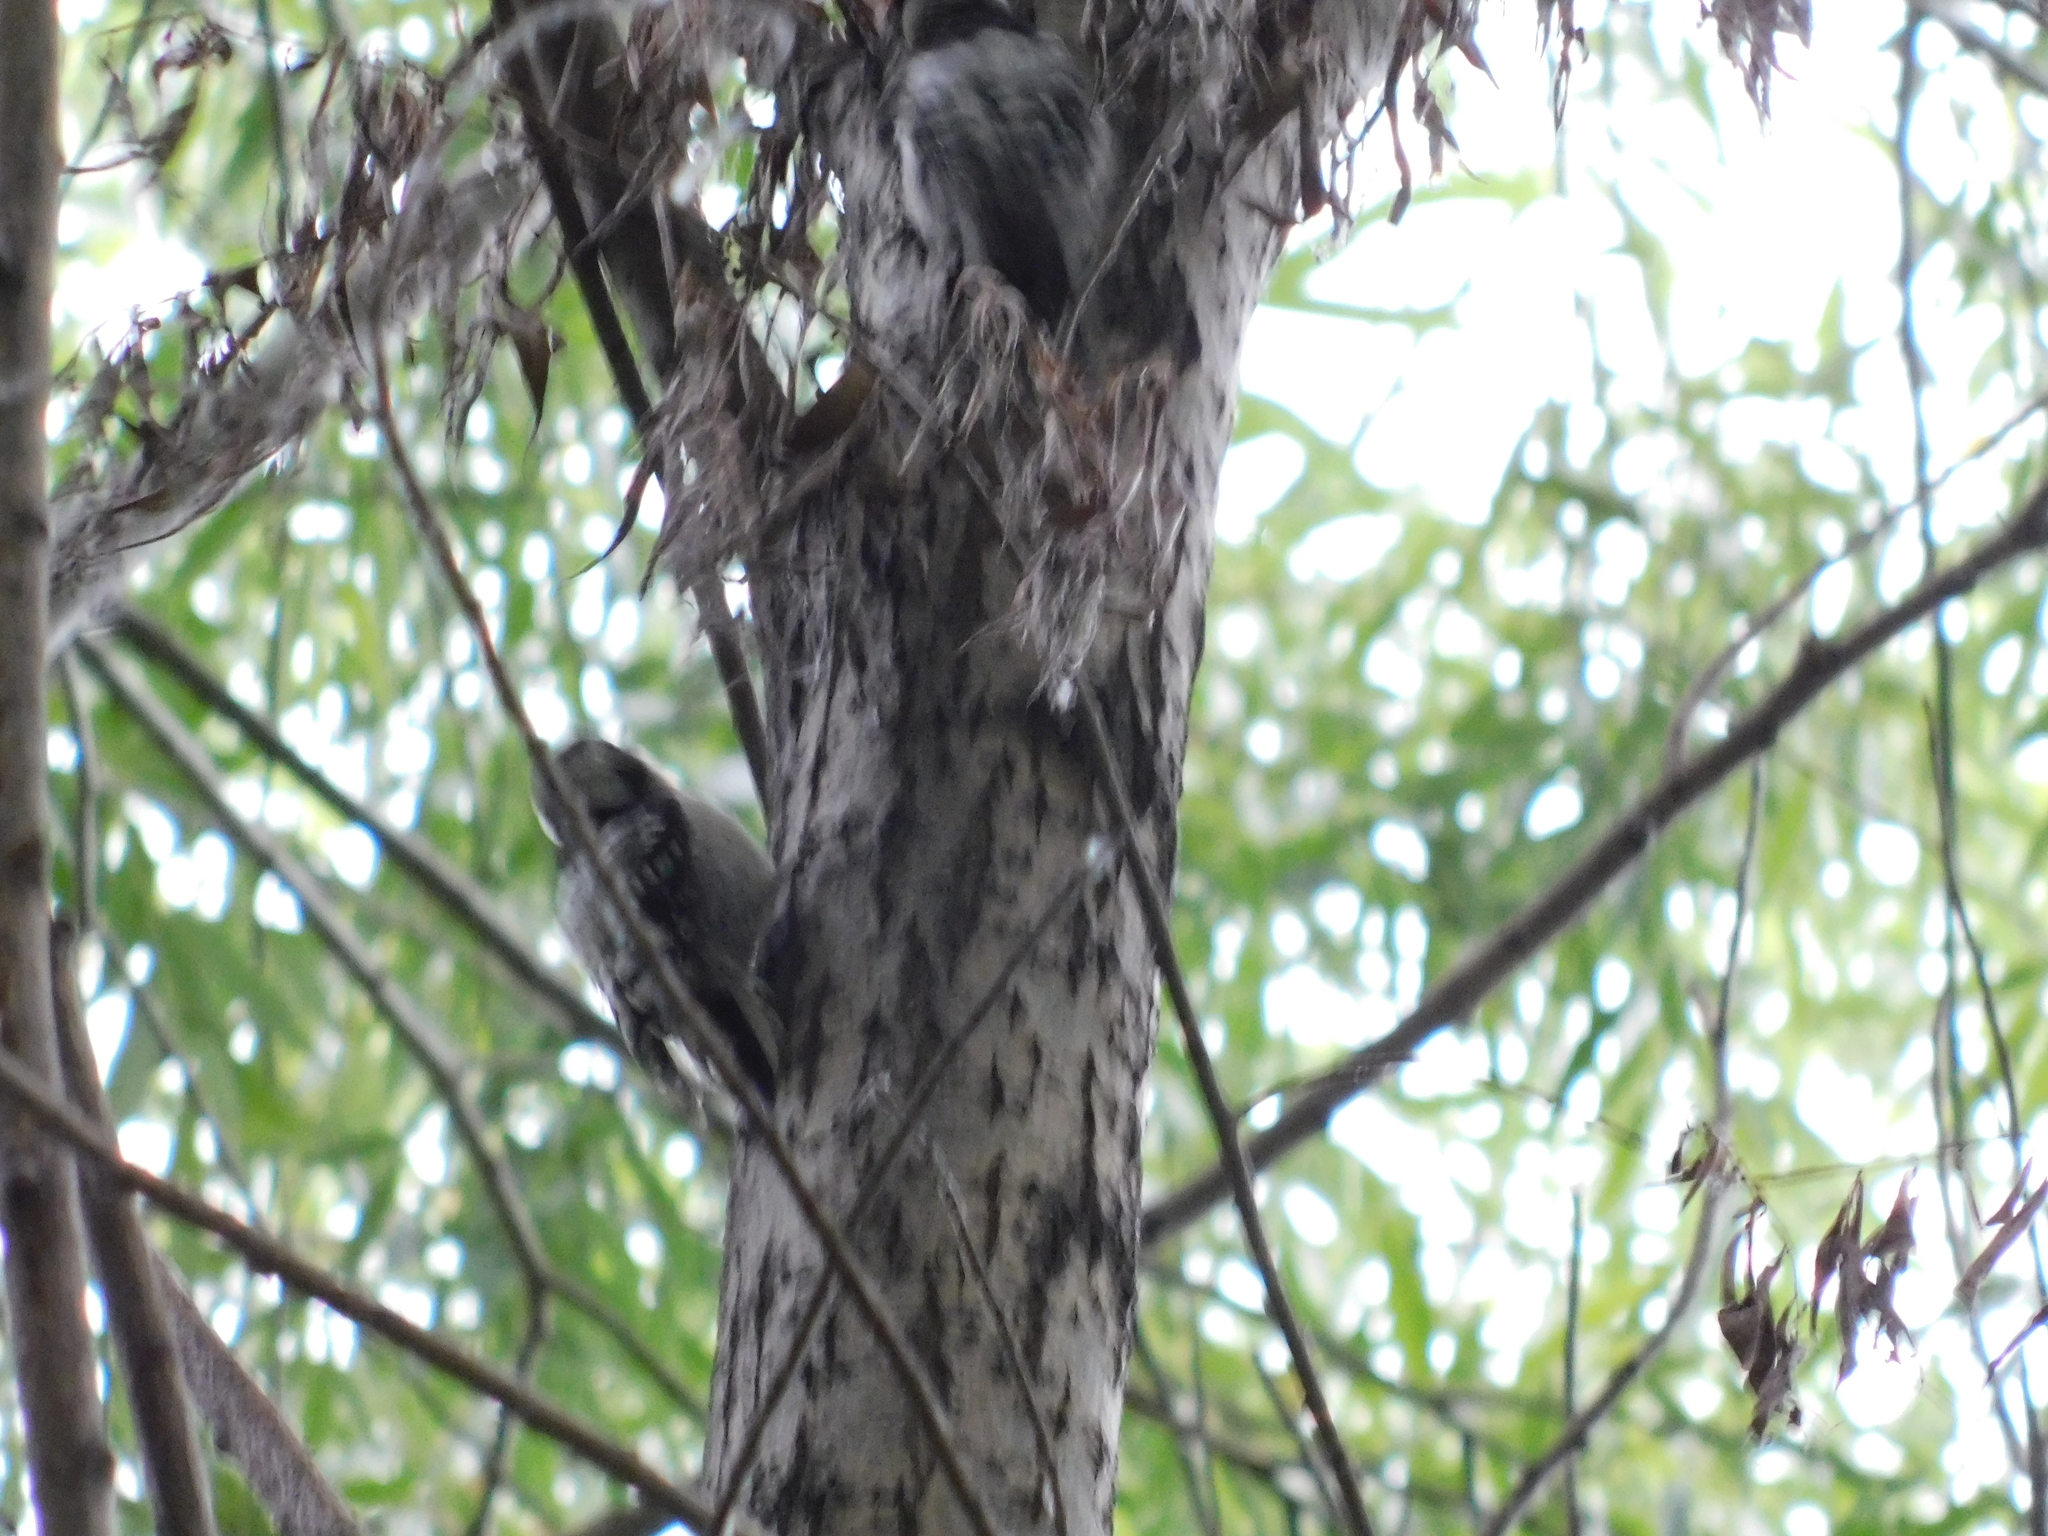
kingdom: Animalia
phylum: Chordata
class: Aves
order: Piciformes
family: Picidae
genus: Dryobates
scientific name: Dryobates minor
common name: Lesser spotted woodpecker
